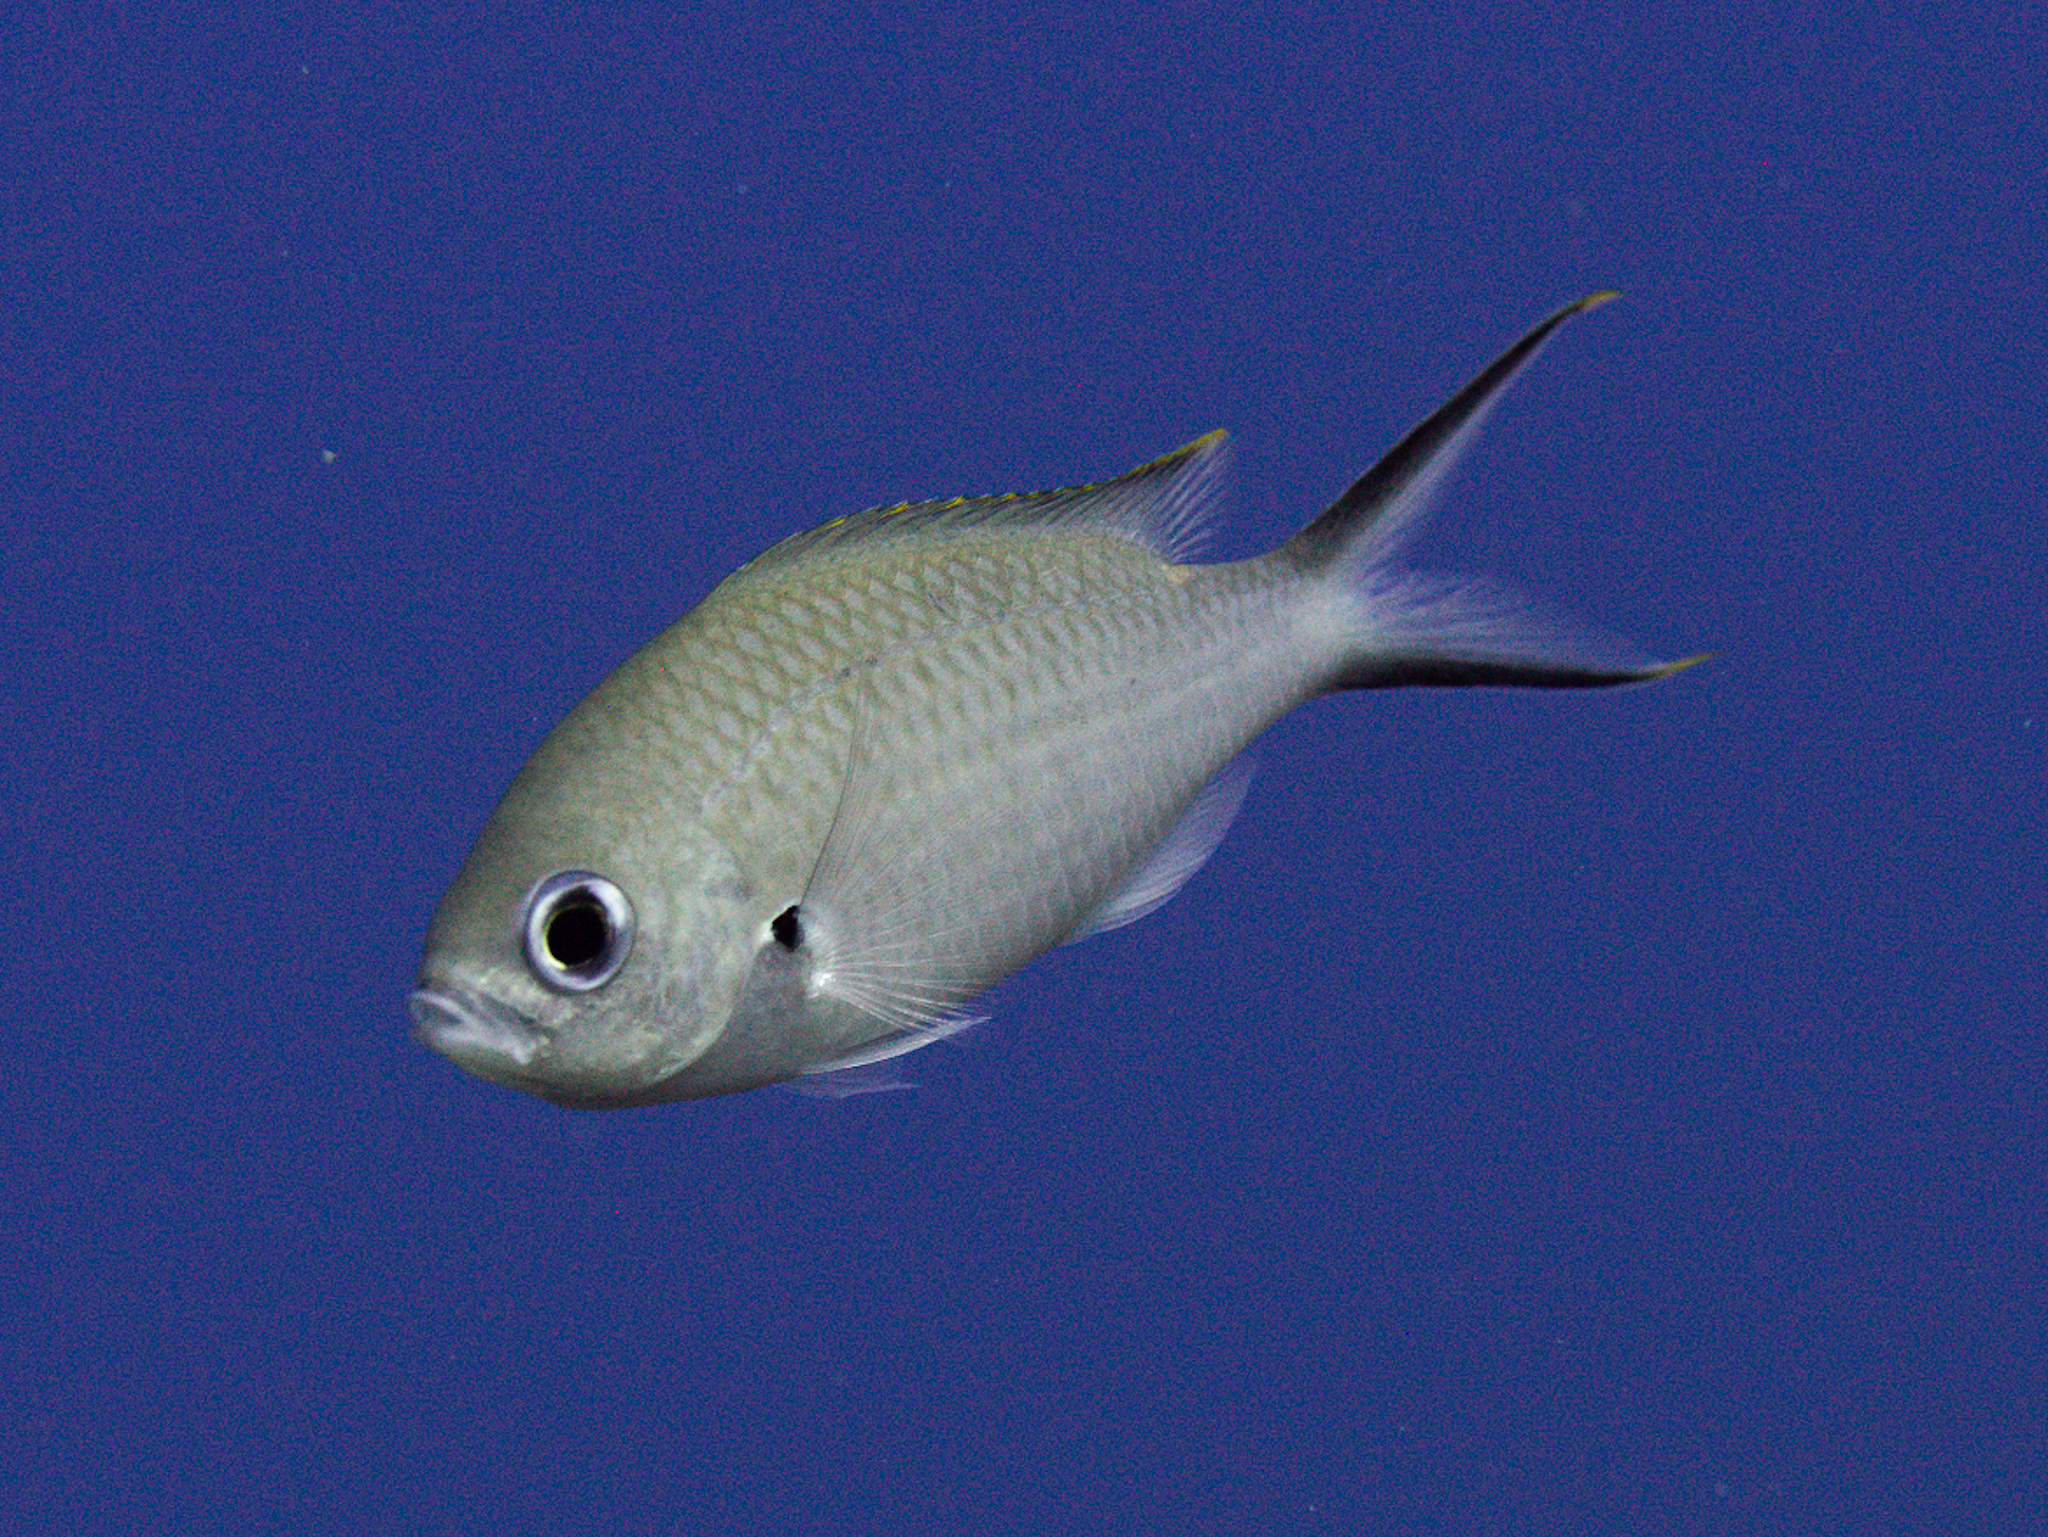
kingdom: Animalia
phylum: Chordata
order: Perciformes
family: Pomacentridae
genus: Chromis
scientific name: Chromis multilineata
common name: Brown chromis
